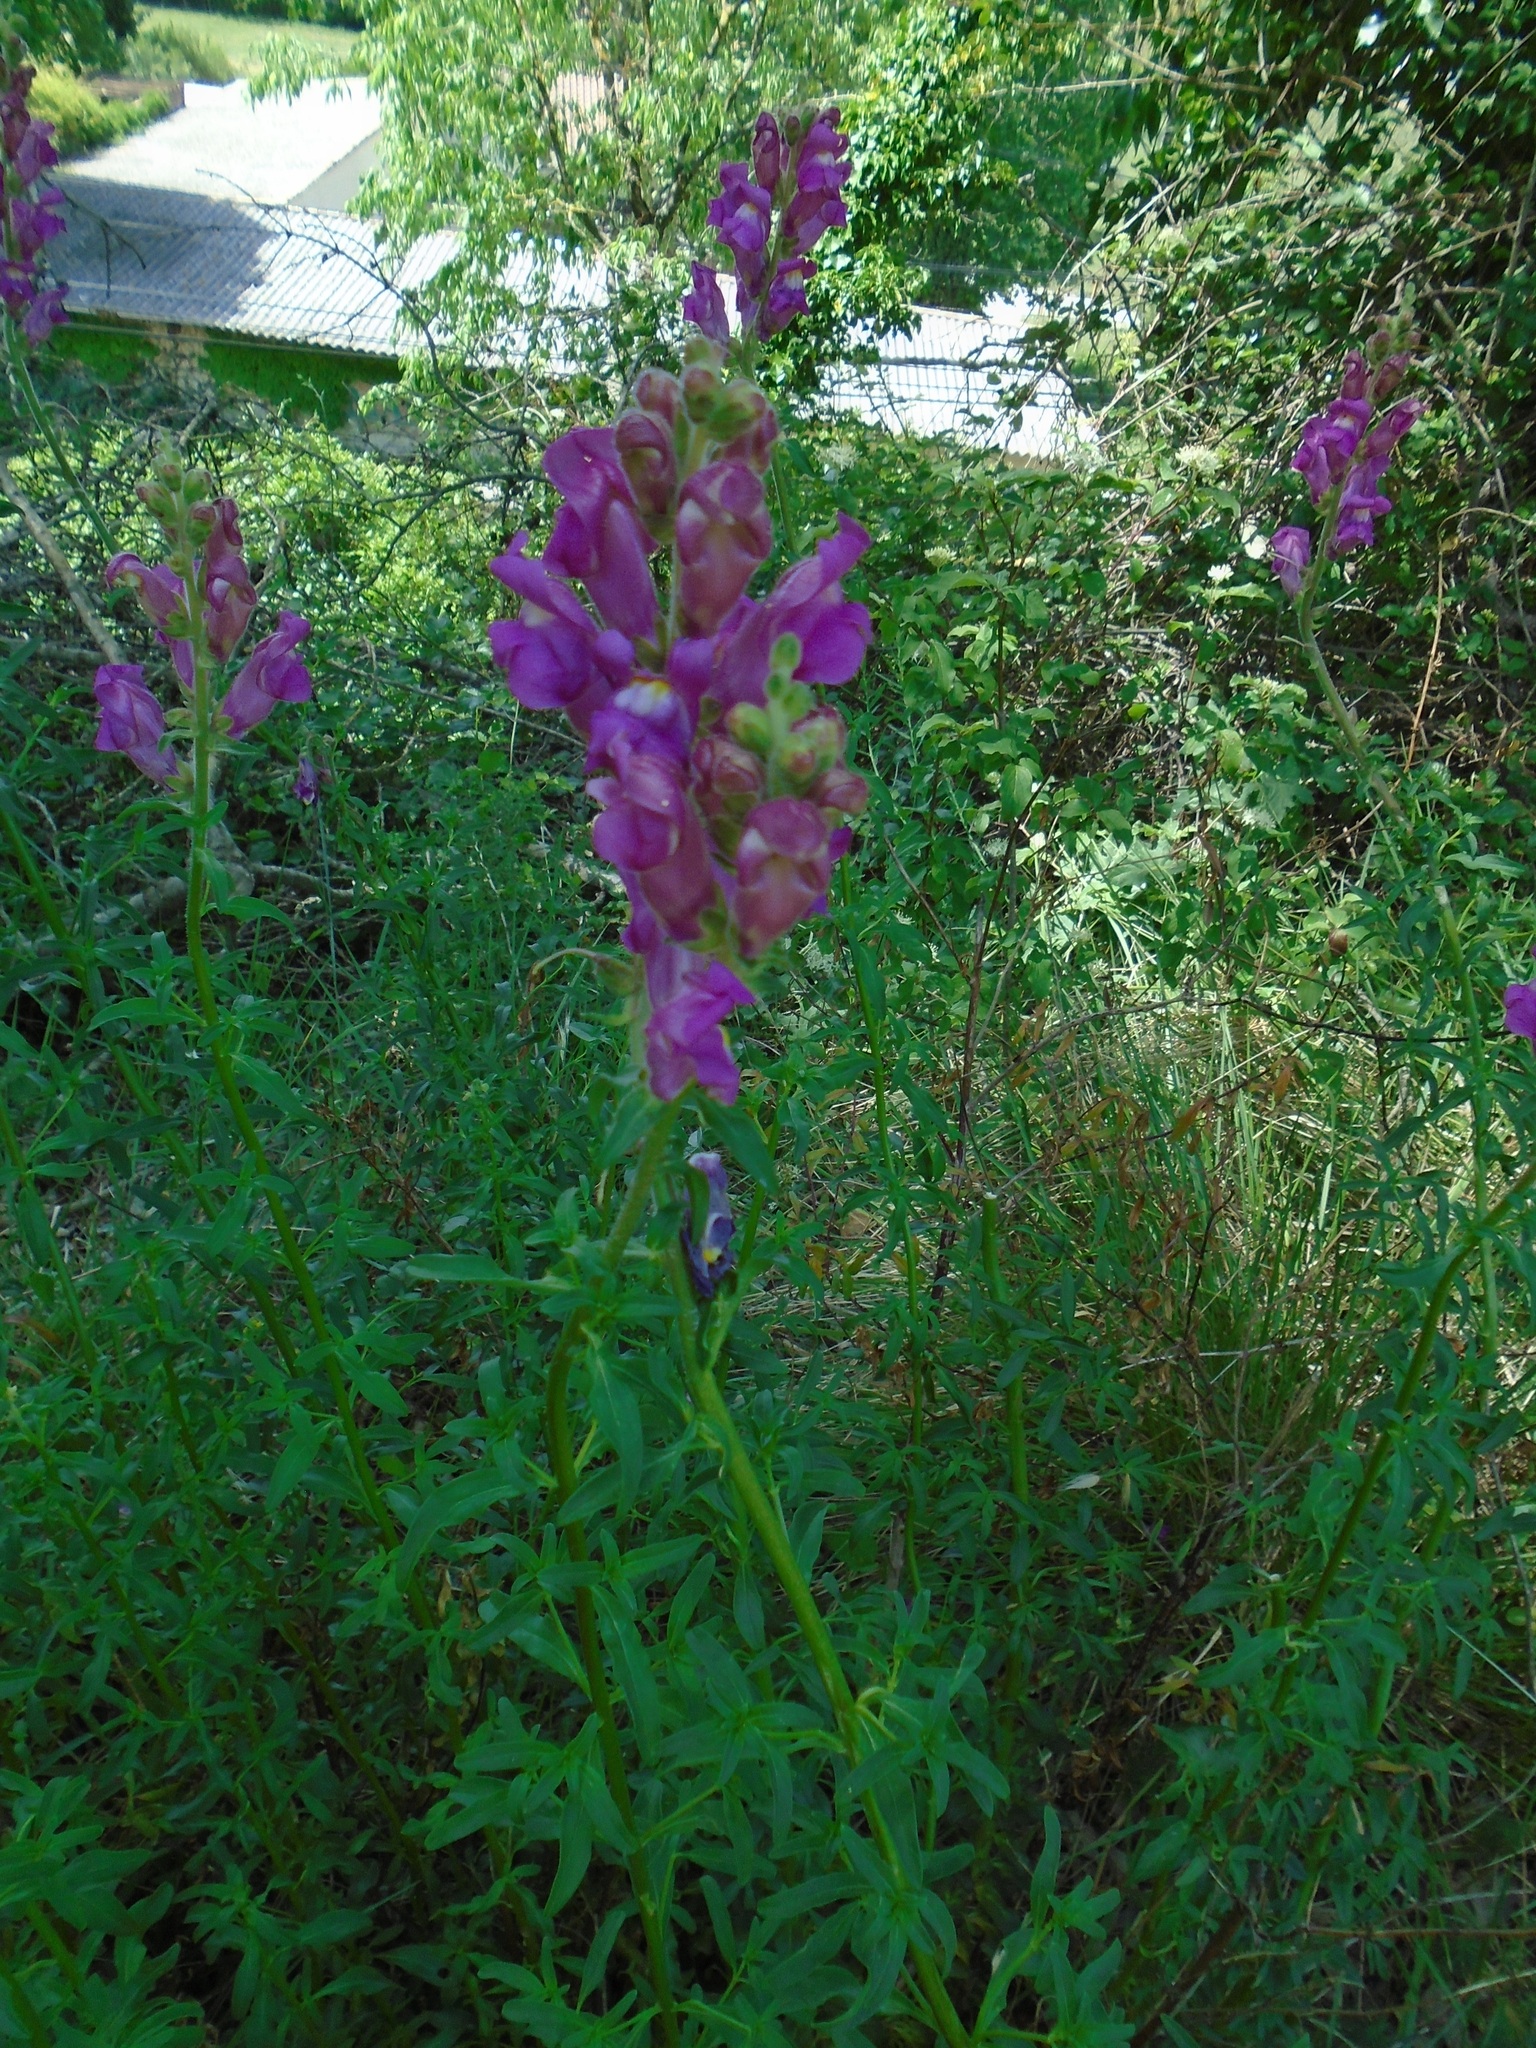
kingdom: Plantae
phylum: Tracheophyta
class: Magnoliopsida
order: Lamiales
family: Plantaginaceae
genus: Antirrhinum
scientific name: Antirrhinum majus
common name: Snapdragon
